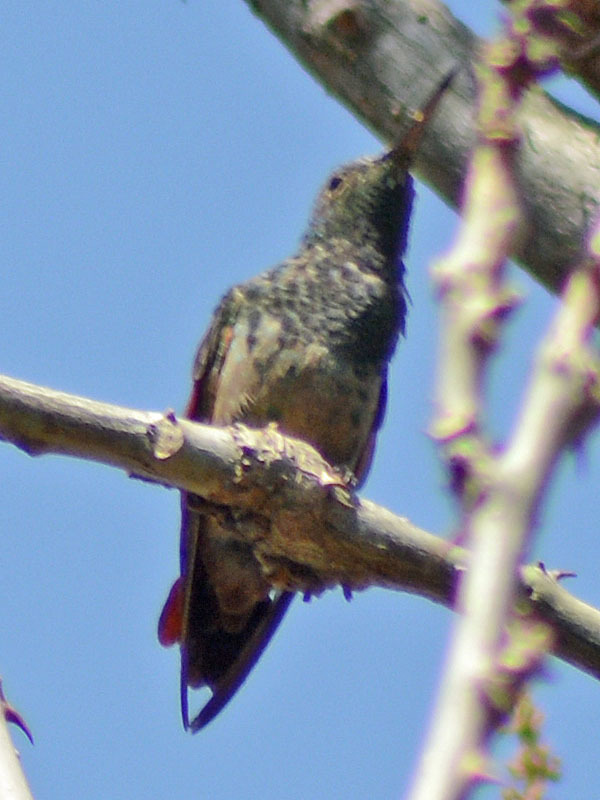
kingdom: Animalia
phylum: Chordata
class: Aves
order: Apodiformes
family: Trochilidae
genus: Saucerottia
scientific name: Saucerottia beryllina
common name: Berylline hummingbird
